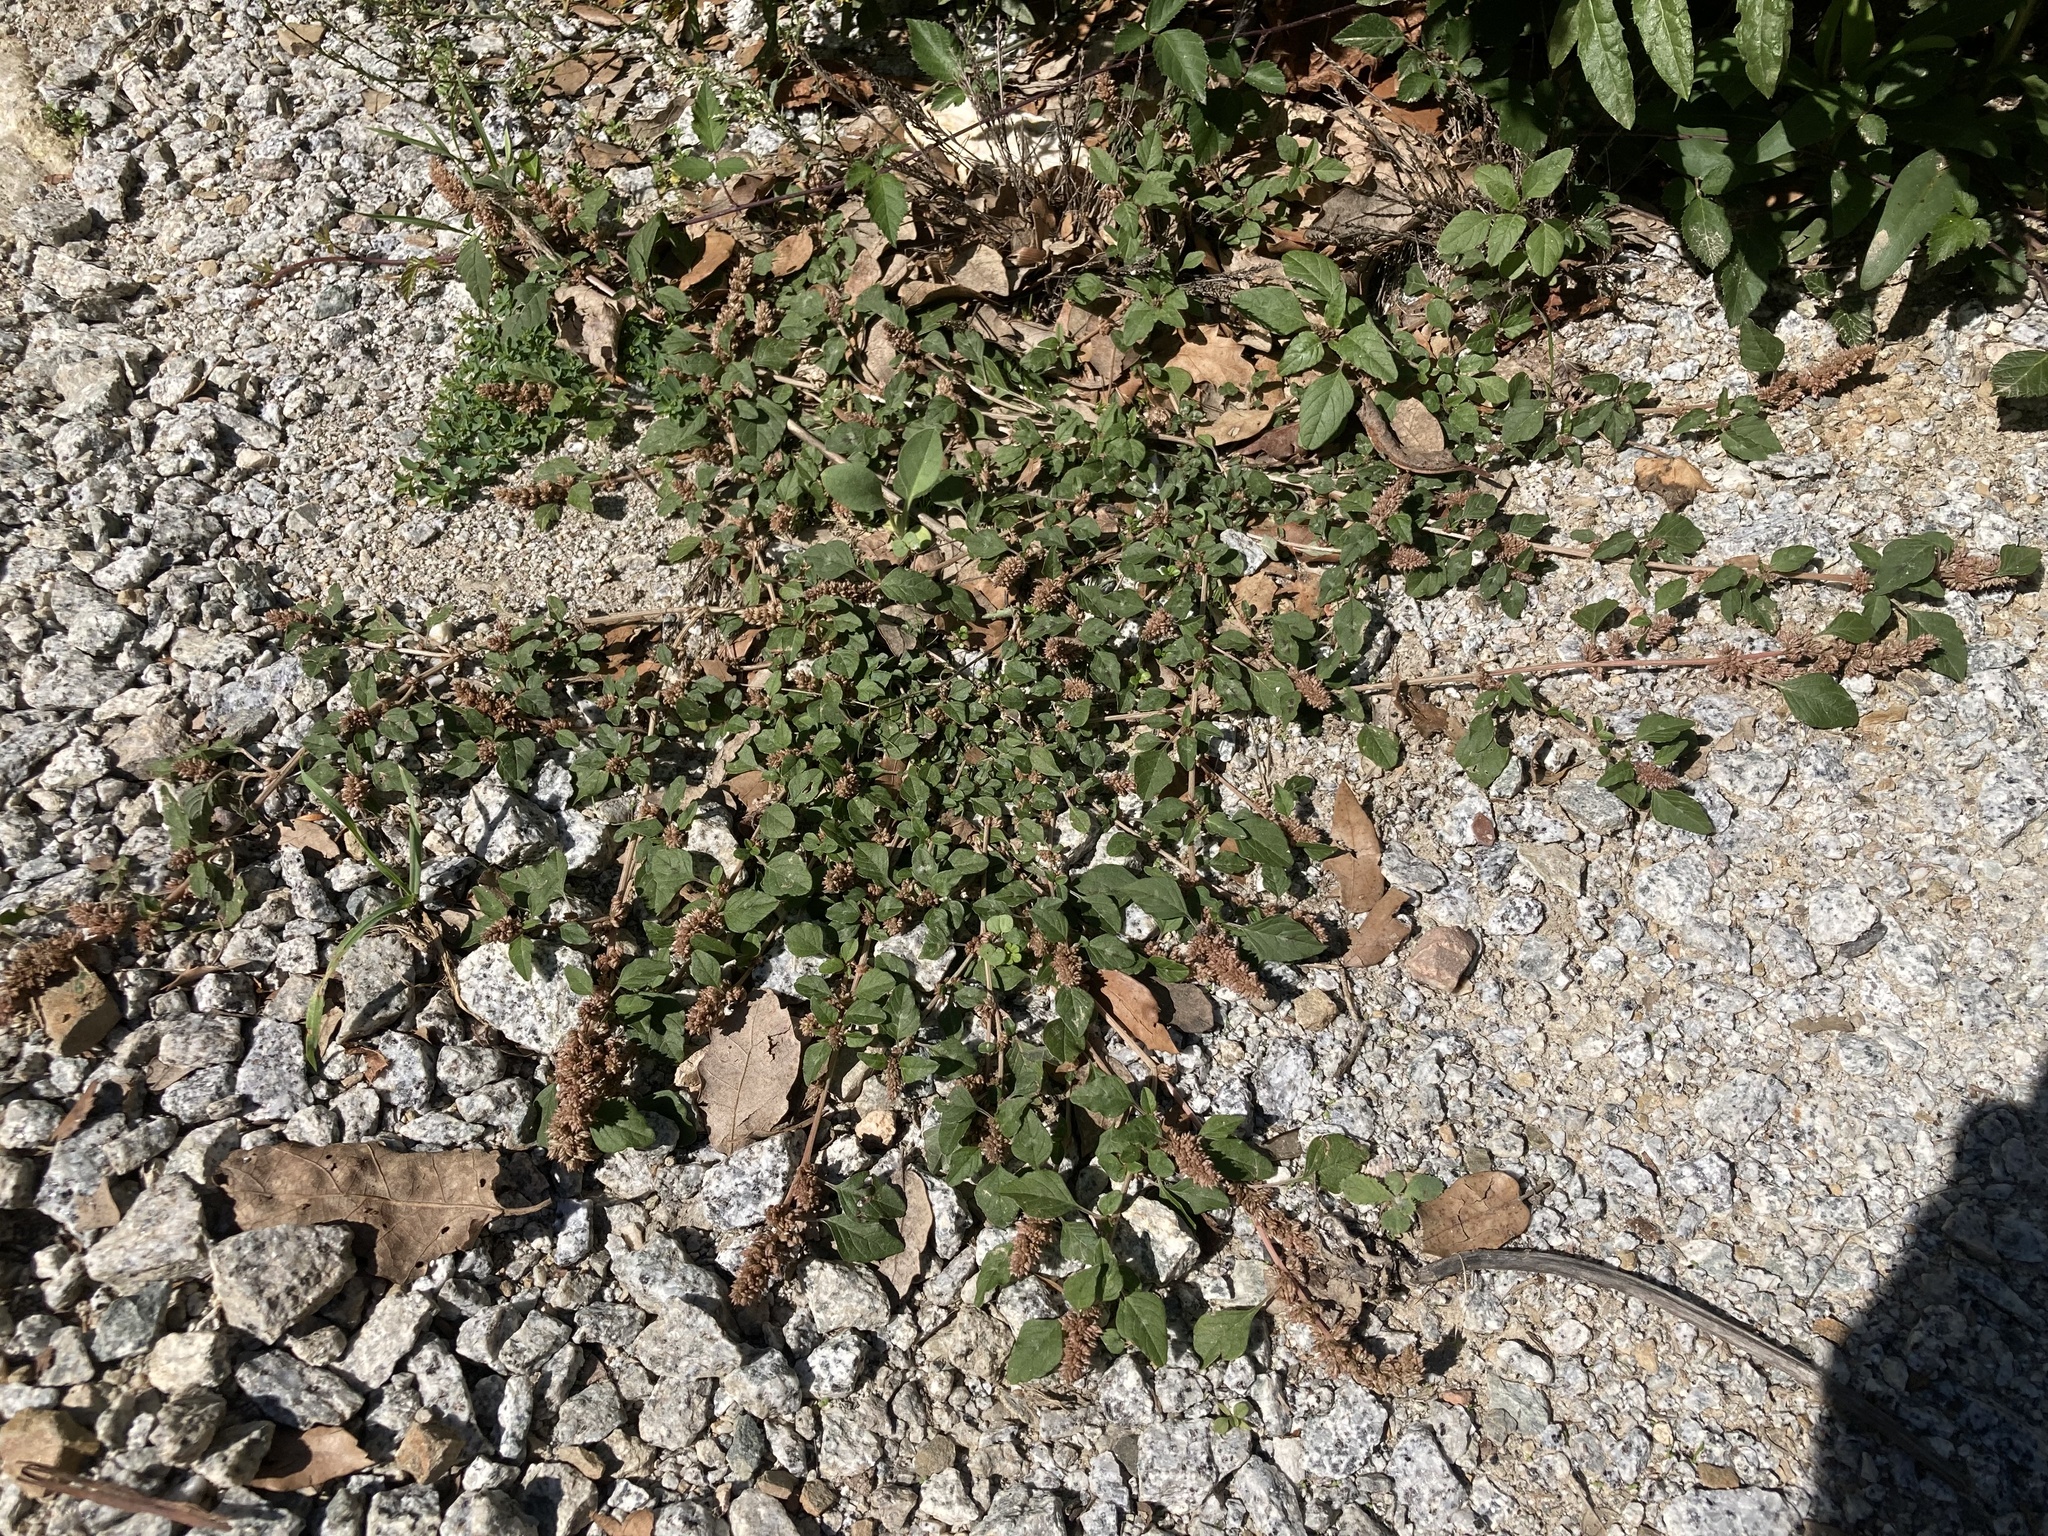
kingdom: Plantae
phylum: Tracheophyta
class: Magnoliopsida
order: Caryophyllales
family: Amaranthaceae
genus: Amaranthus
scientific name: Amaranthus deflexus
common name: Perennial pigweed
